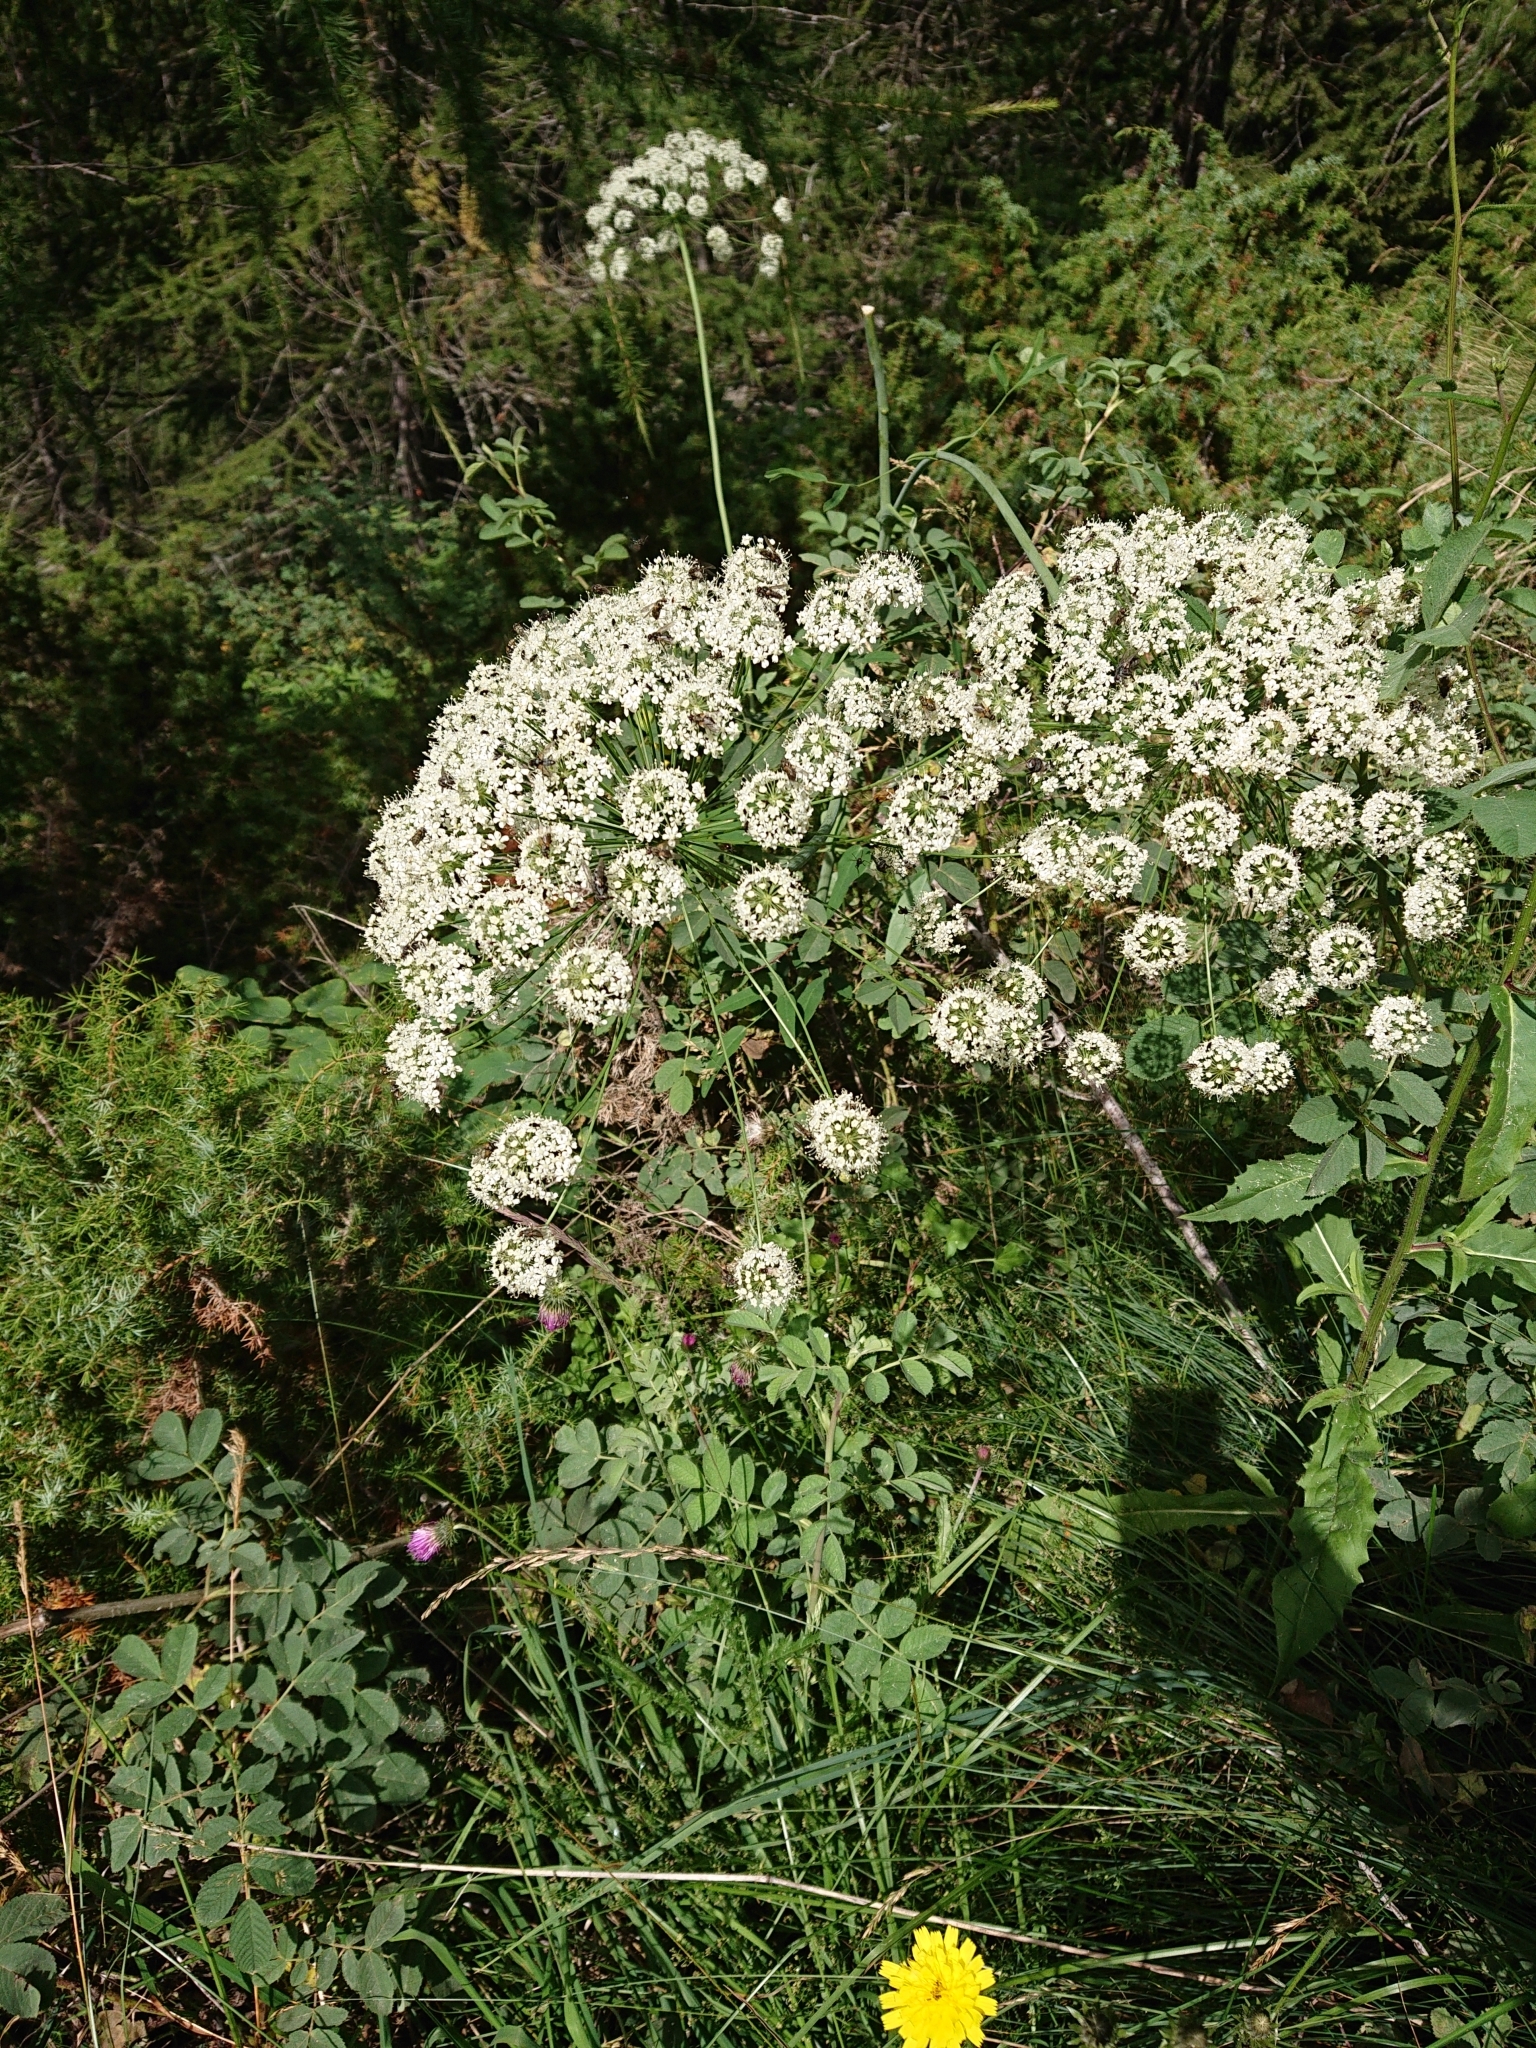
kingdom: Plantae
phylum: Tracheophyta
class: Magnoliopsida
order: Apiales
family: Apiaceae
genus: Laserpitium
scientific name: Laserpitium latifolium
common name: Broadleaf sermountain
